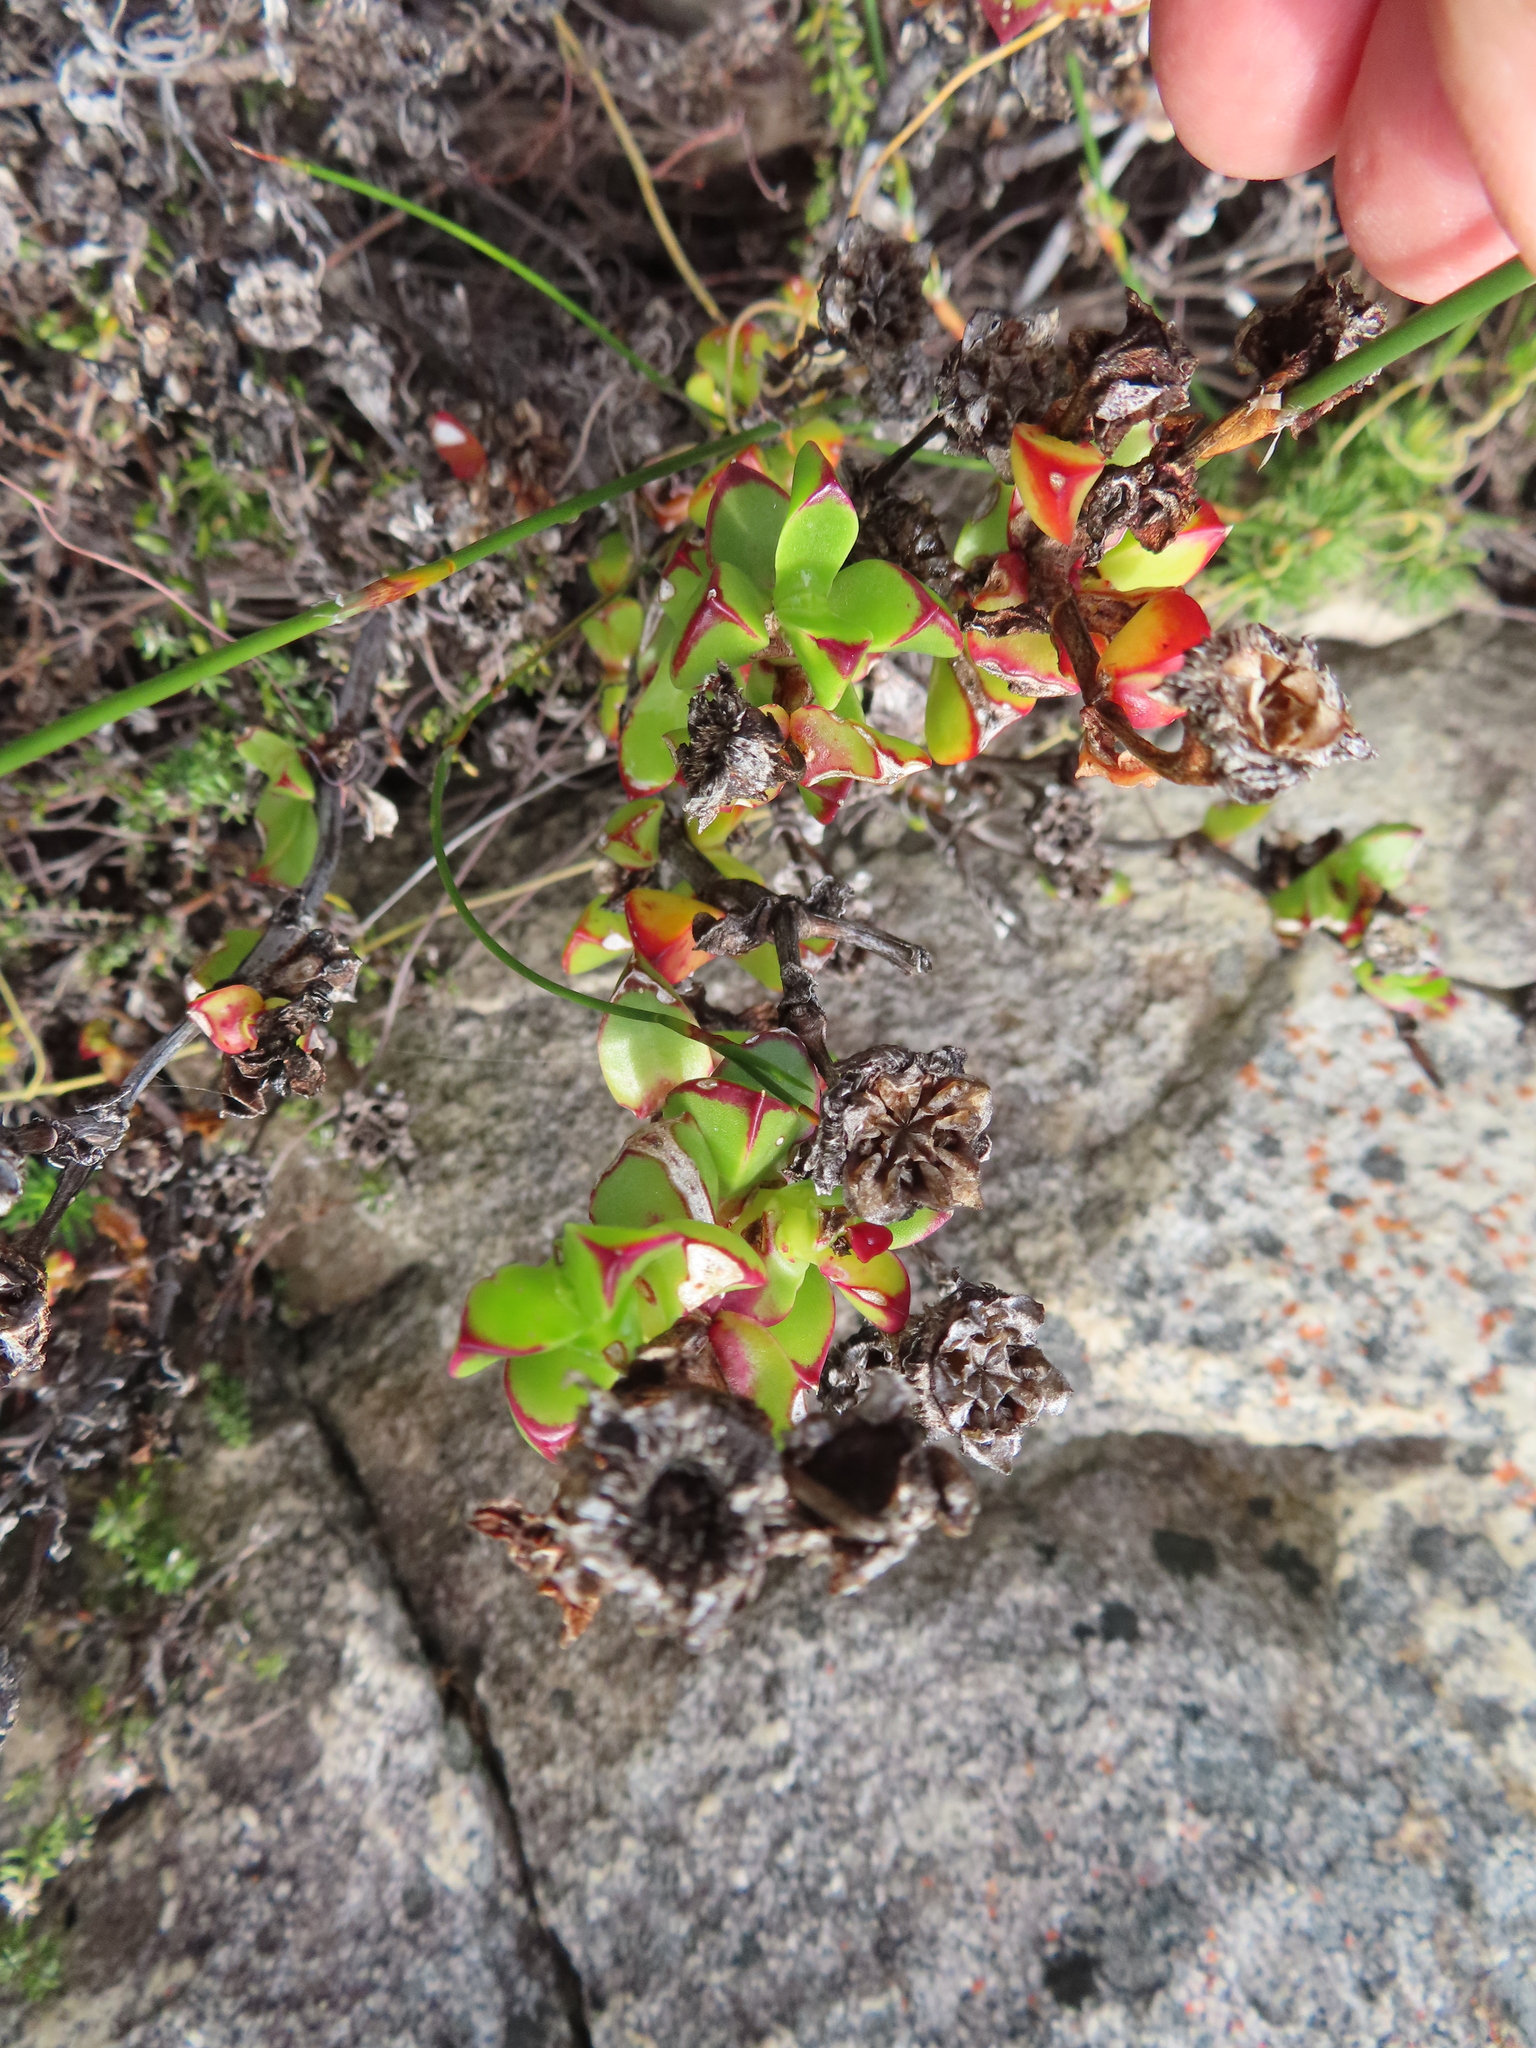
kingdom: Plantae
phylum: Tracheophyta
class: Magnoliopsida
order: Caryophyllales
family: Aizoaceae
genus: Erepsia
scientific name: Erepsia inclaudens
